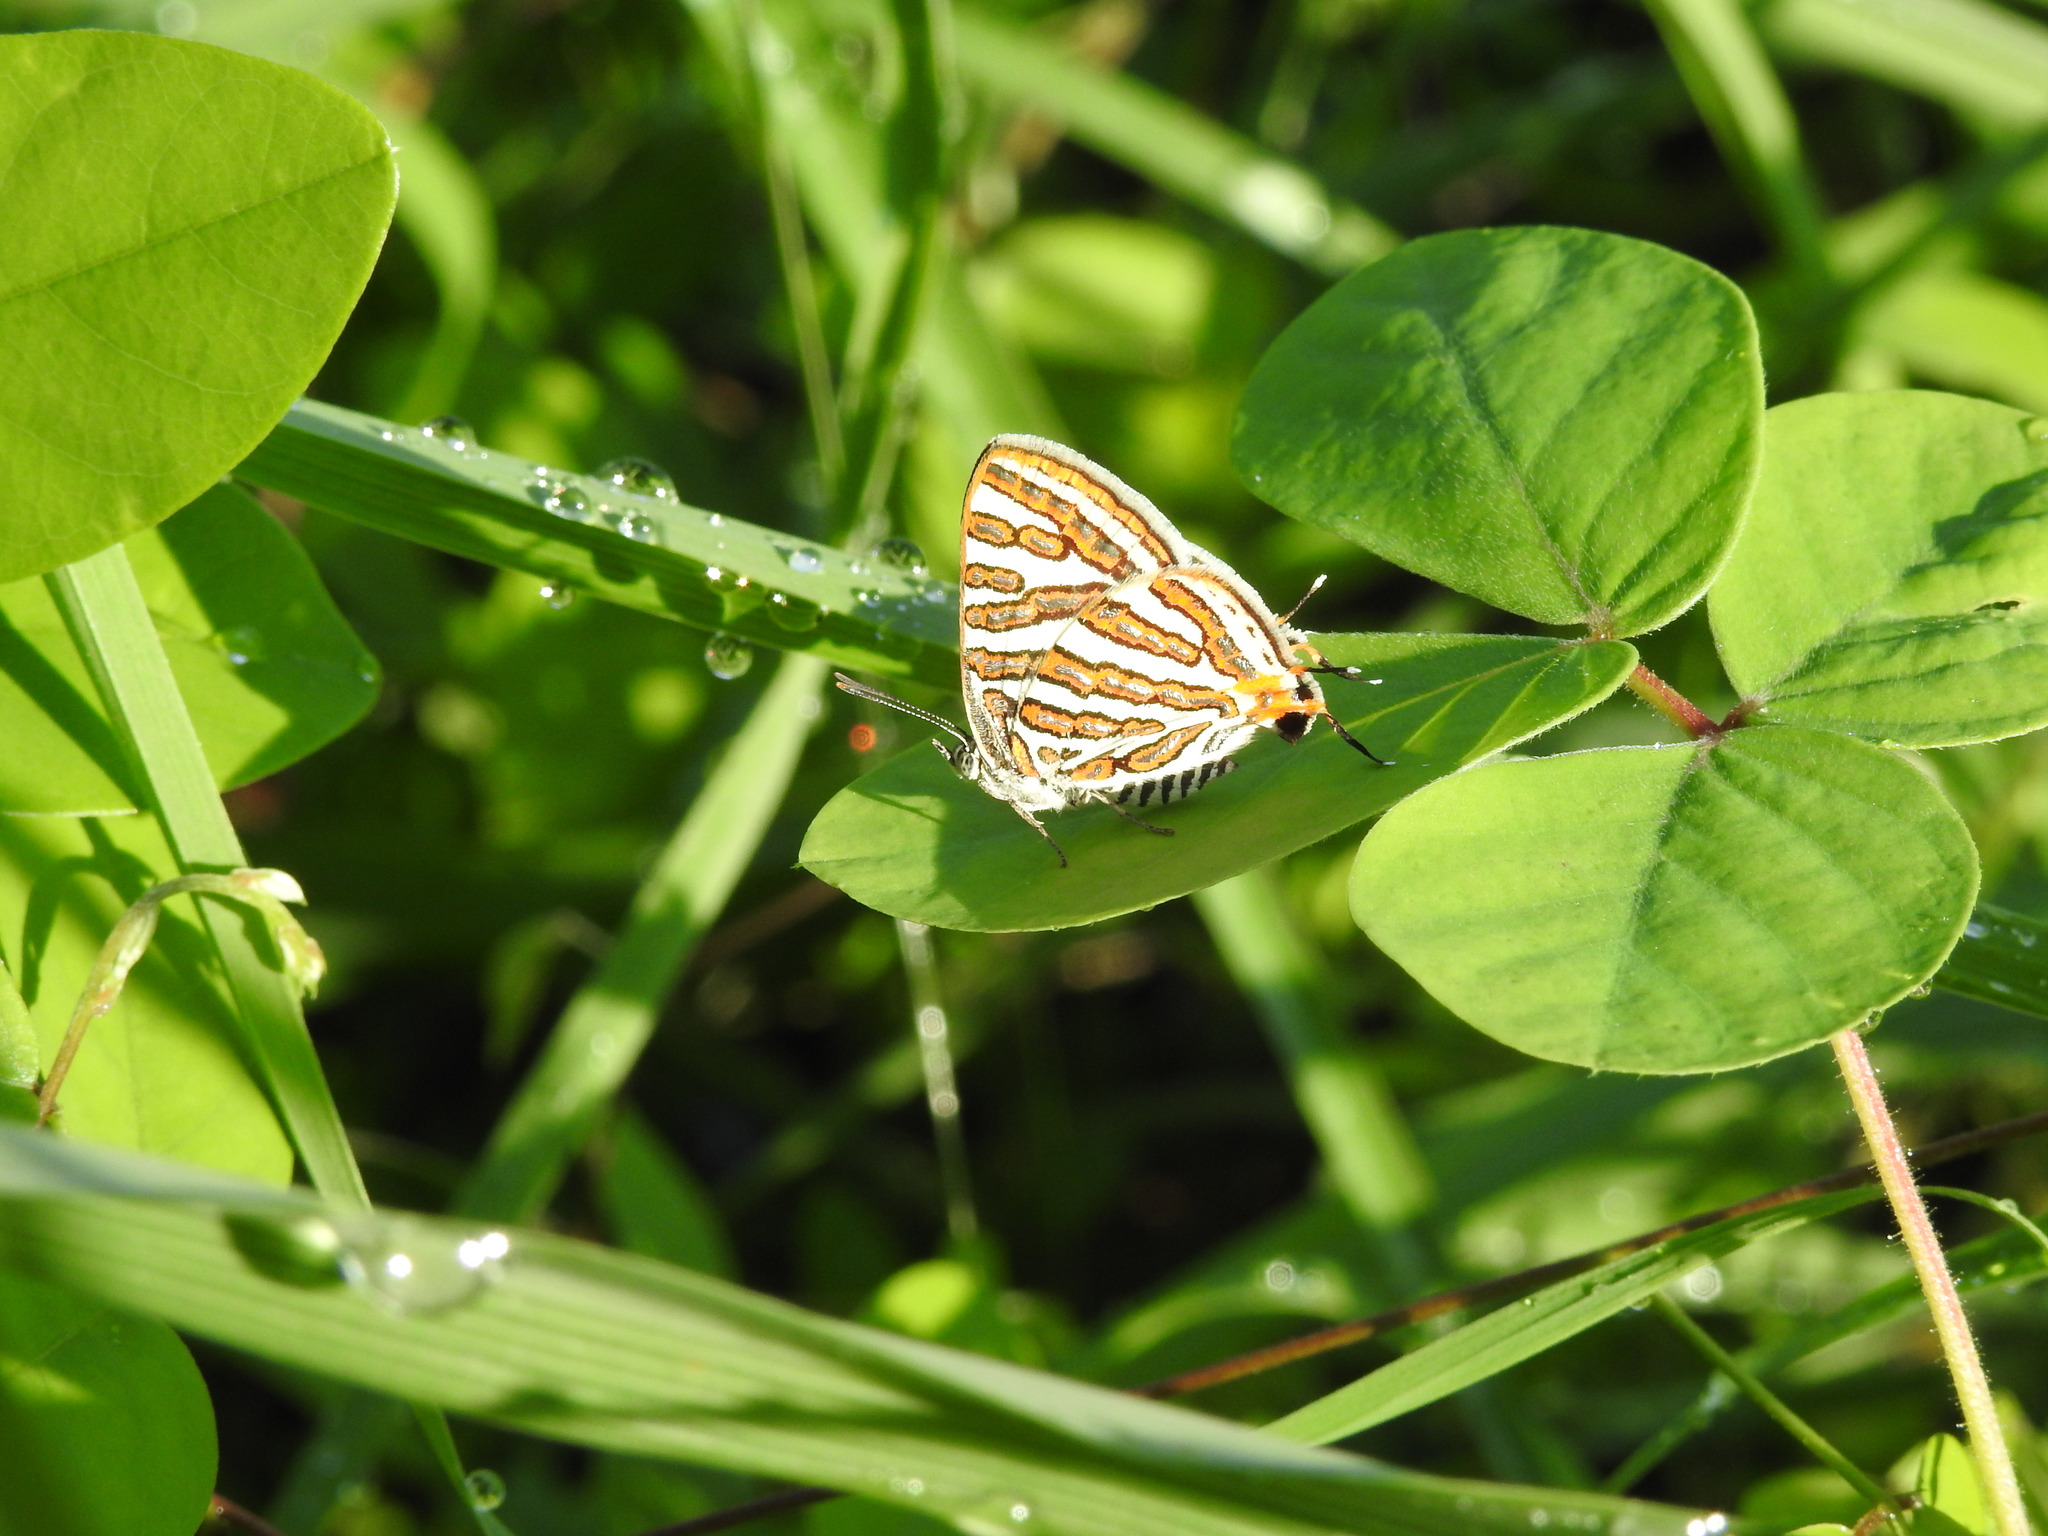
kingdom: Animalia
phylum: Arthropoda
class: Insecta
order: Lepidoptera
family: Lycaenidae
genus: Cigaritis
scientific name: Cigaritis vulcanus
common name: Common silverline
